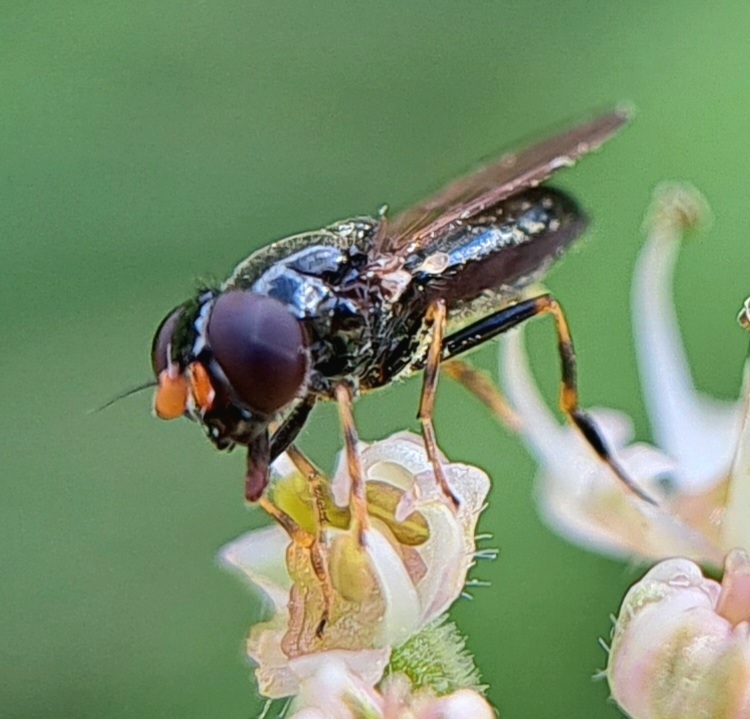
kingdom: Animalia
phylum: Arthropoda
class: Insecta
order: Diptera
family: Syrphidae
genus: Cheilosia
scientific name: Cheilosia pagana
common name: Hover fly
